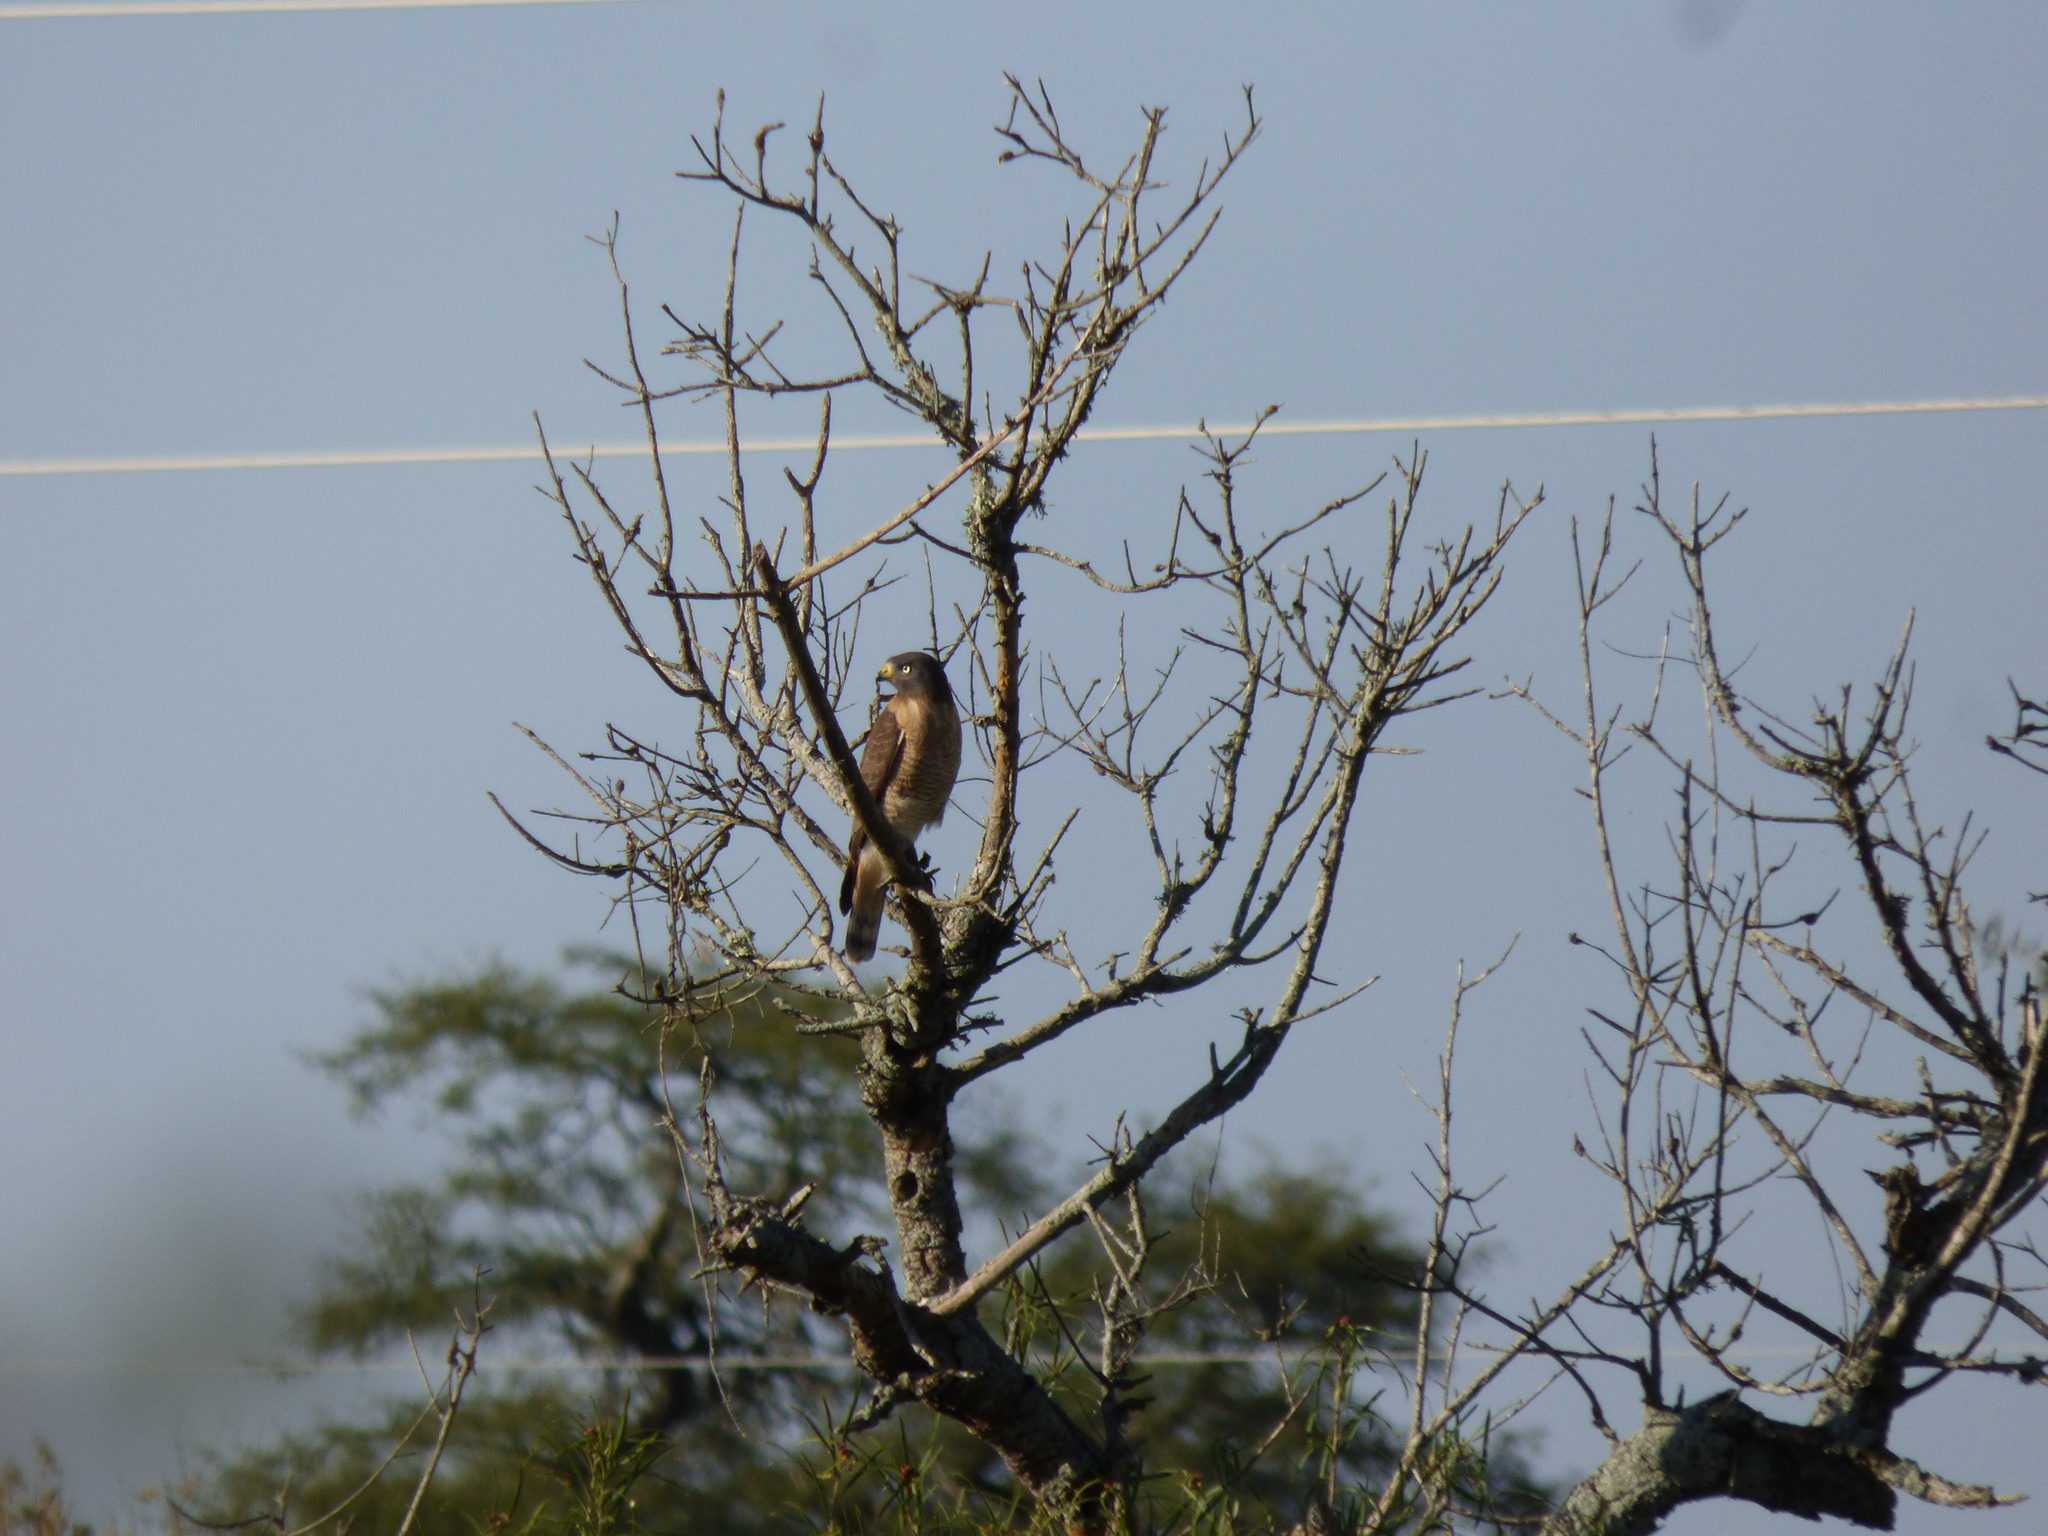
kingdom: Animalia
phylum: Chordata
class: Aves
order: Accipitriformes
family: Accipitridae
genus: Rupornis
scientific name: Rupornis magnirostris
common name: Roadside hawk
